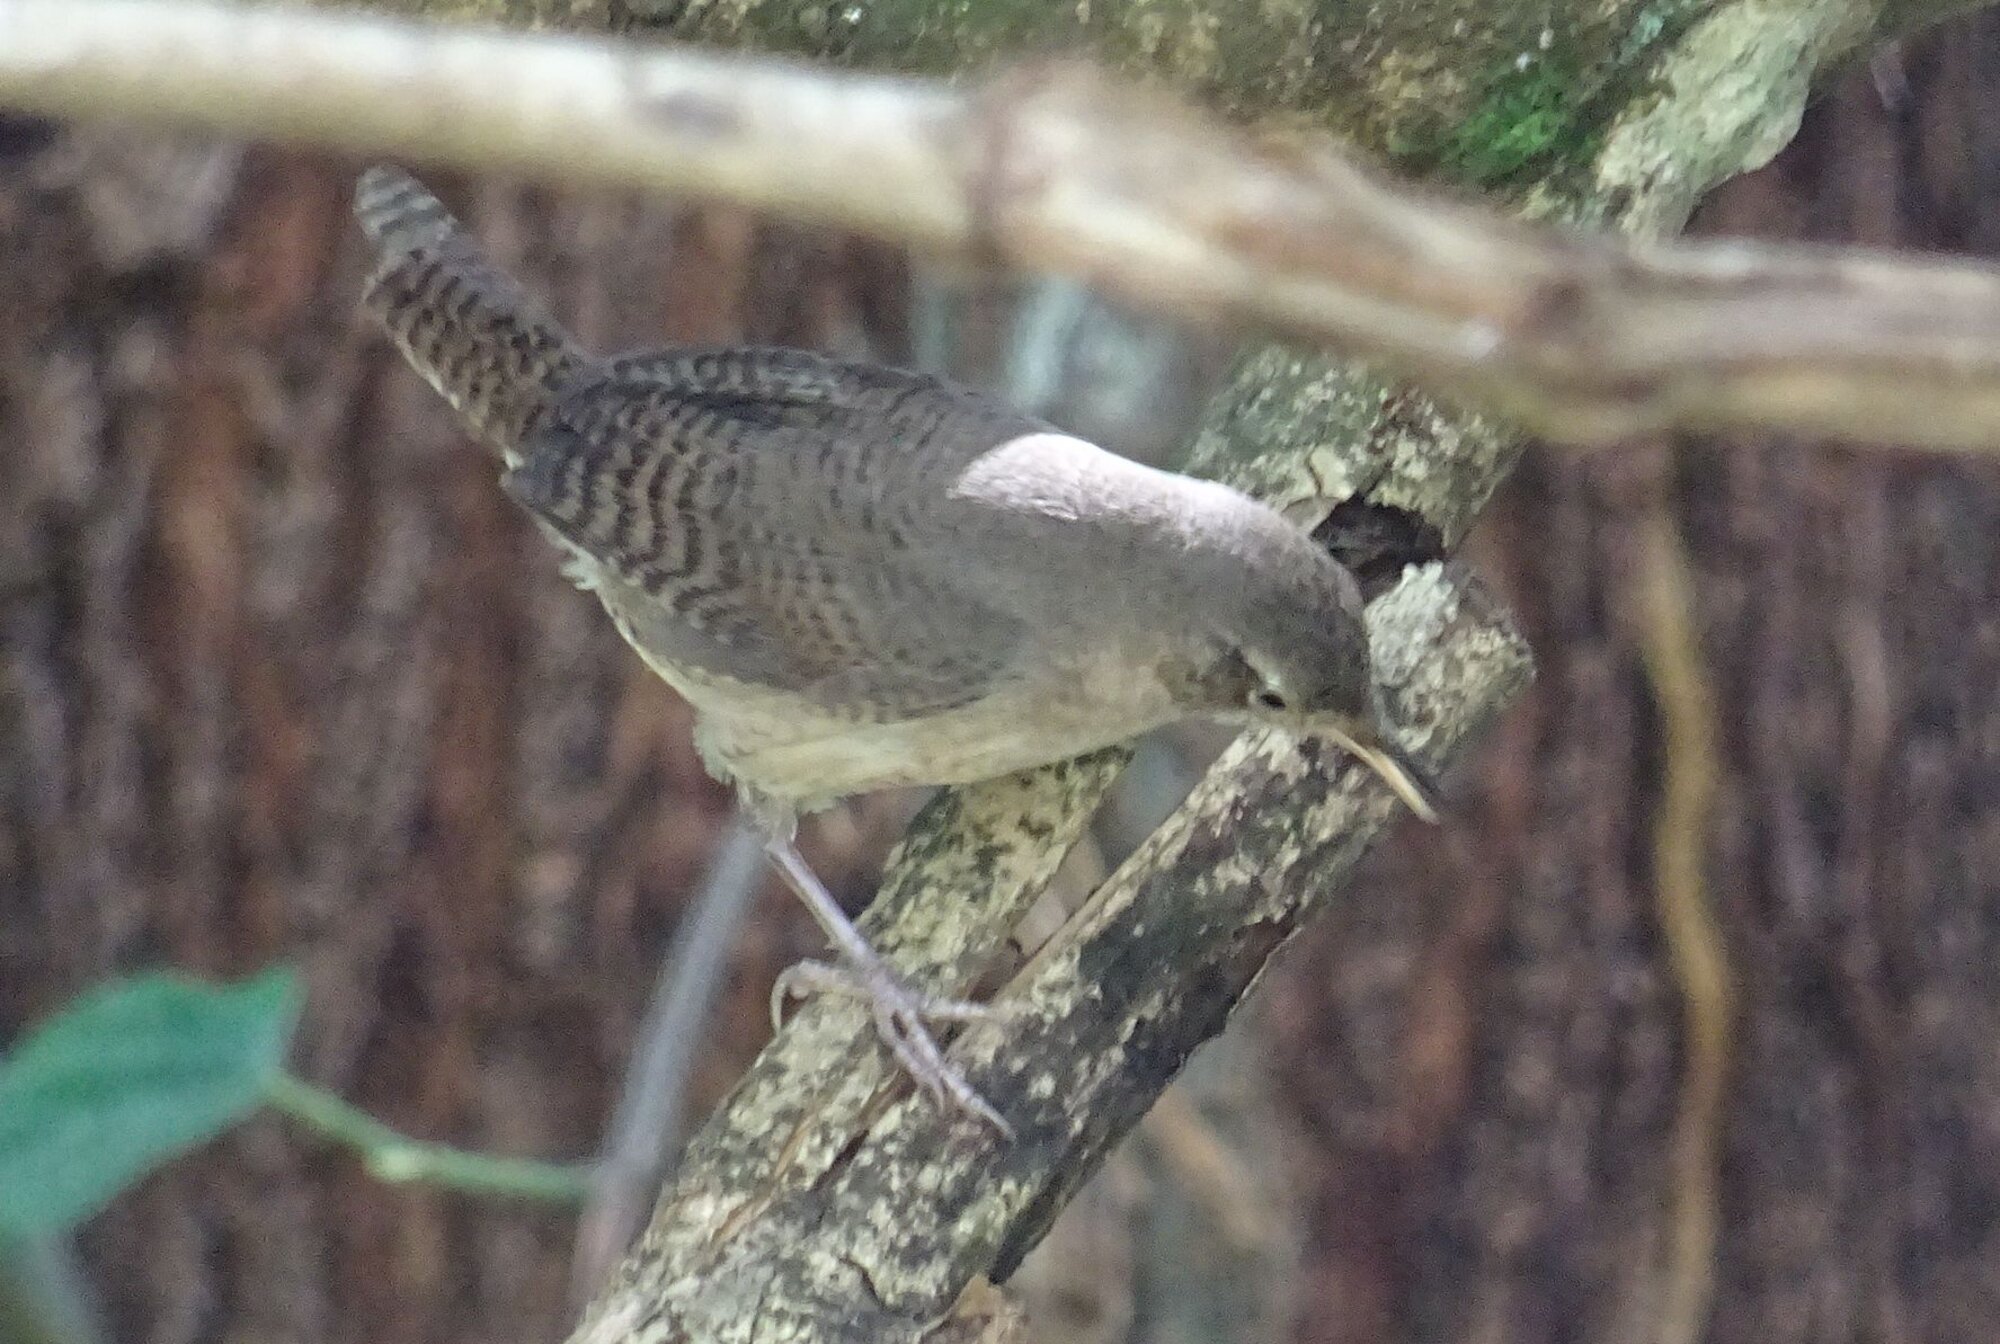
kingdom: Animalia
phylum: Chordata
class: Aves
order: Passeriformes
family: Troglodytidae
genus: Troglodytes
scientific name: Troglodytes aedon
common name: House wren
